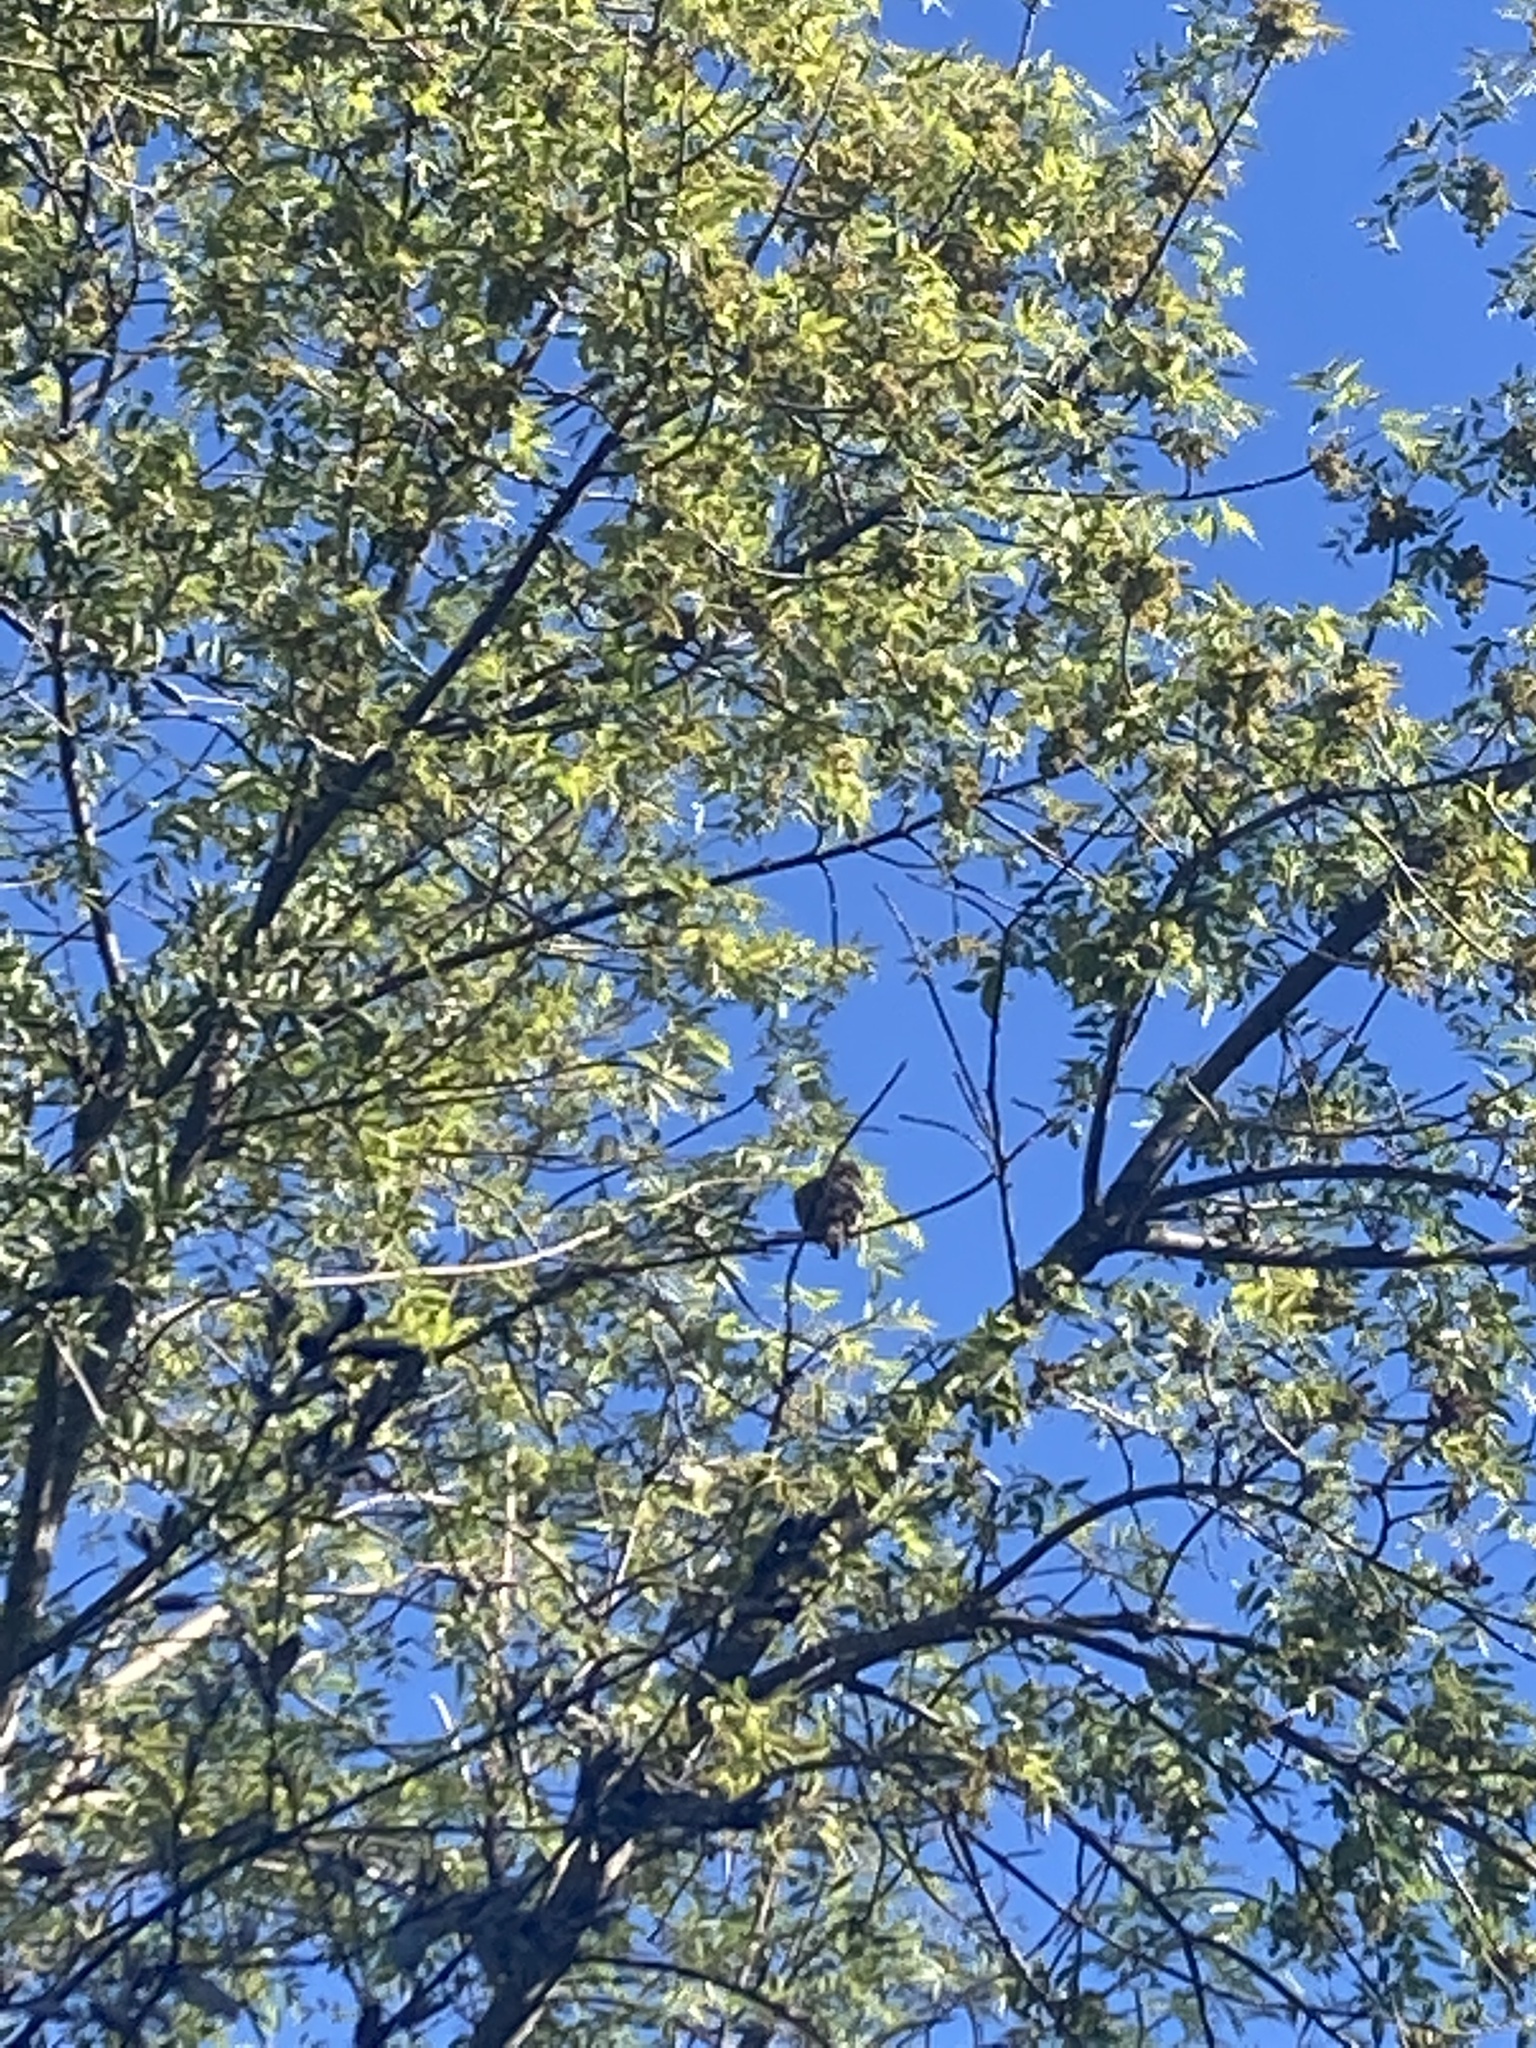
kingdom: Animalia
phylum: Chordata
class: Aves
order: Columbiformes
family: Columbidae
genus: Zenaida
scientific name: Zenaida macroura
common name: Mourning dove
